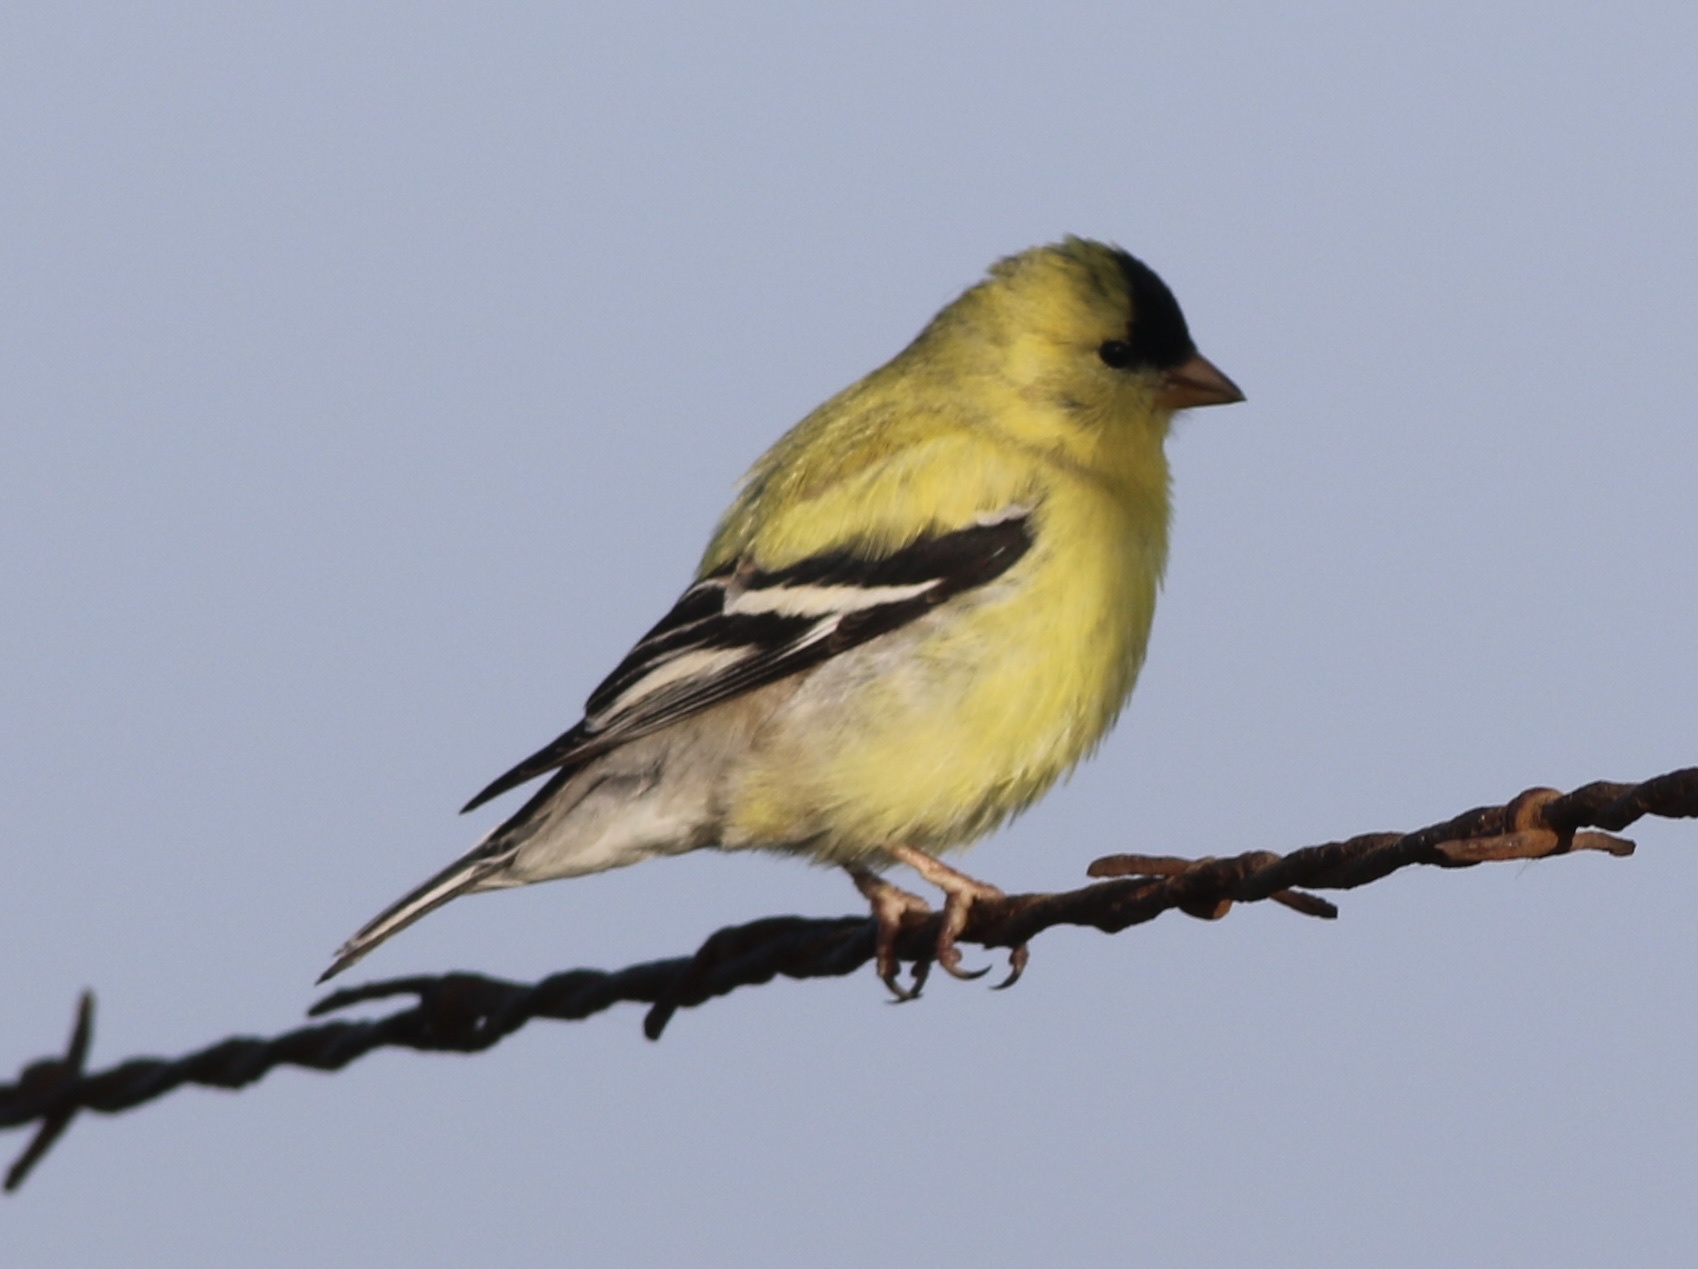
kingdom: Animalia
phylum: Chordata
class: Aves
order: Passeriformes
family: Fringillidae
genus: Spinus
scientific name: Spinus tristis
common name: American goldfinch
